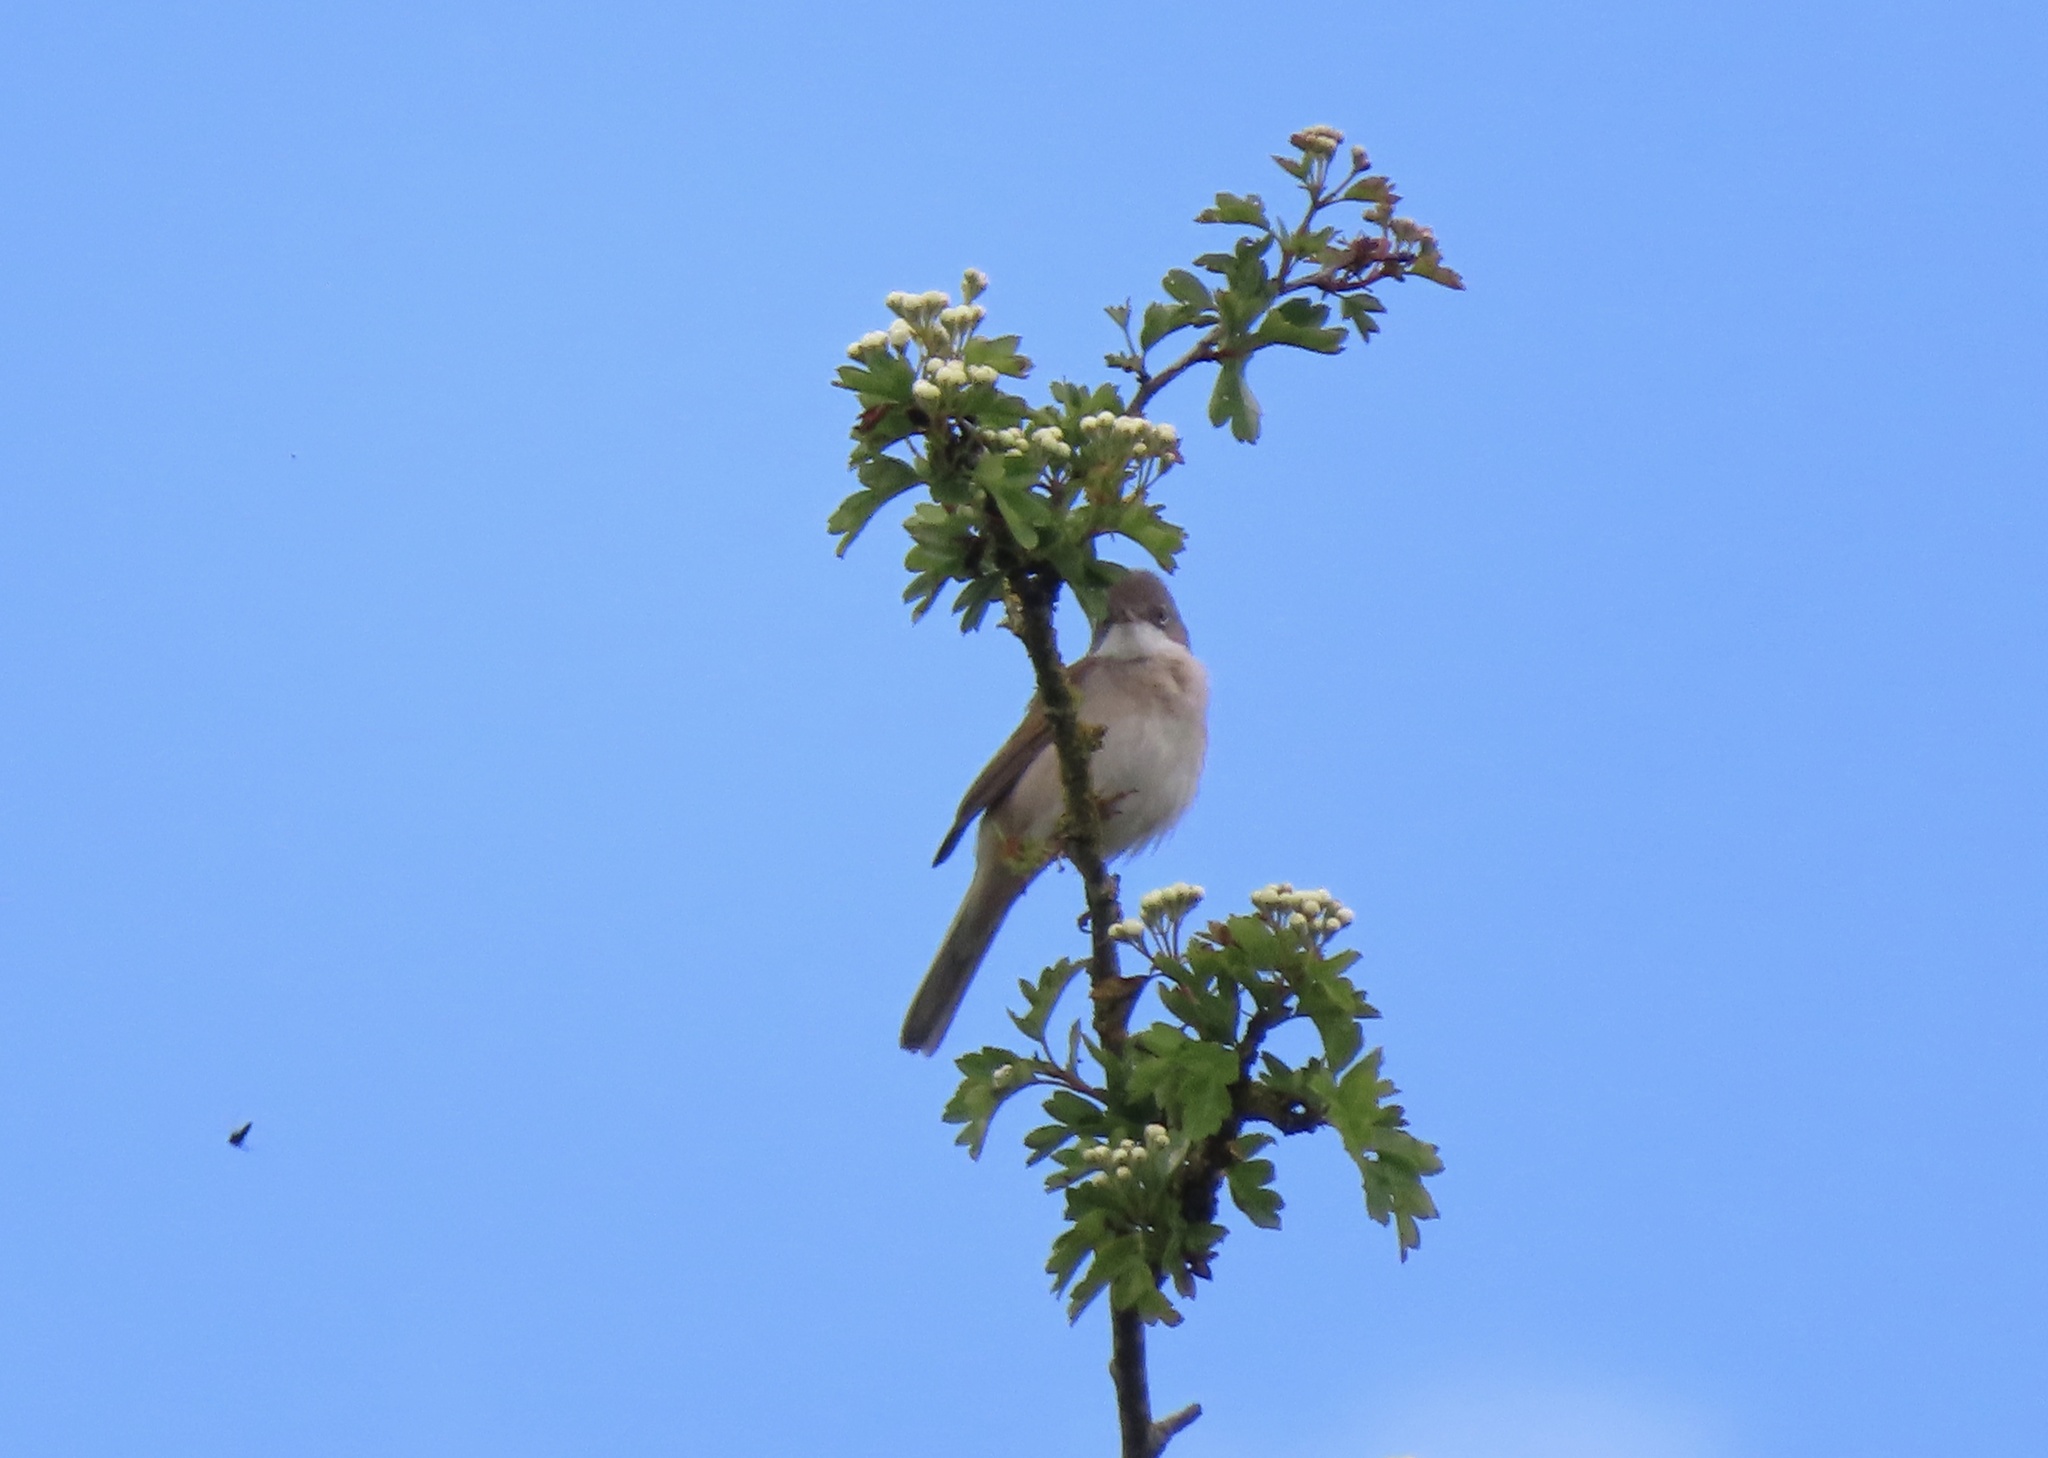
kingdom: Animalia
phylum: Chordata
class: Aves
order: Passeriformes
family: Sylviidae
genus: Sylvia
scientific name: Sylvia communis
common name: Common whitethroat
